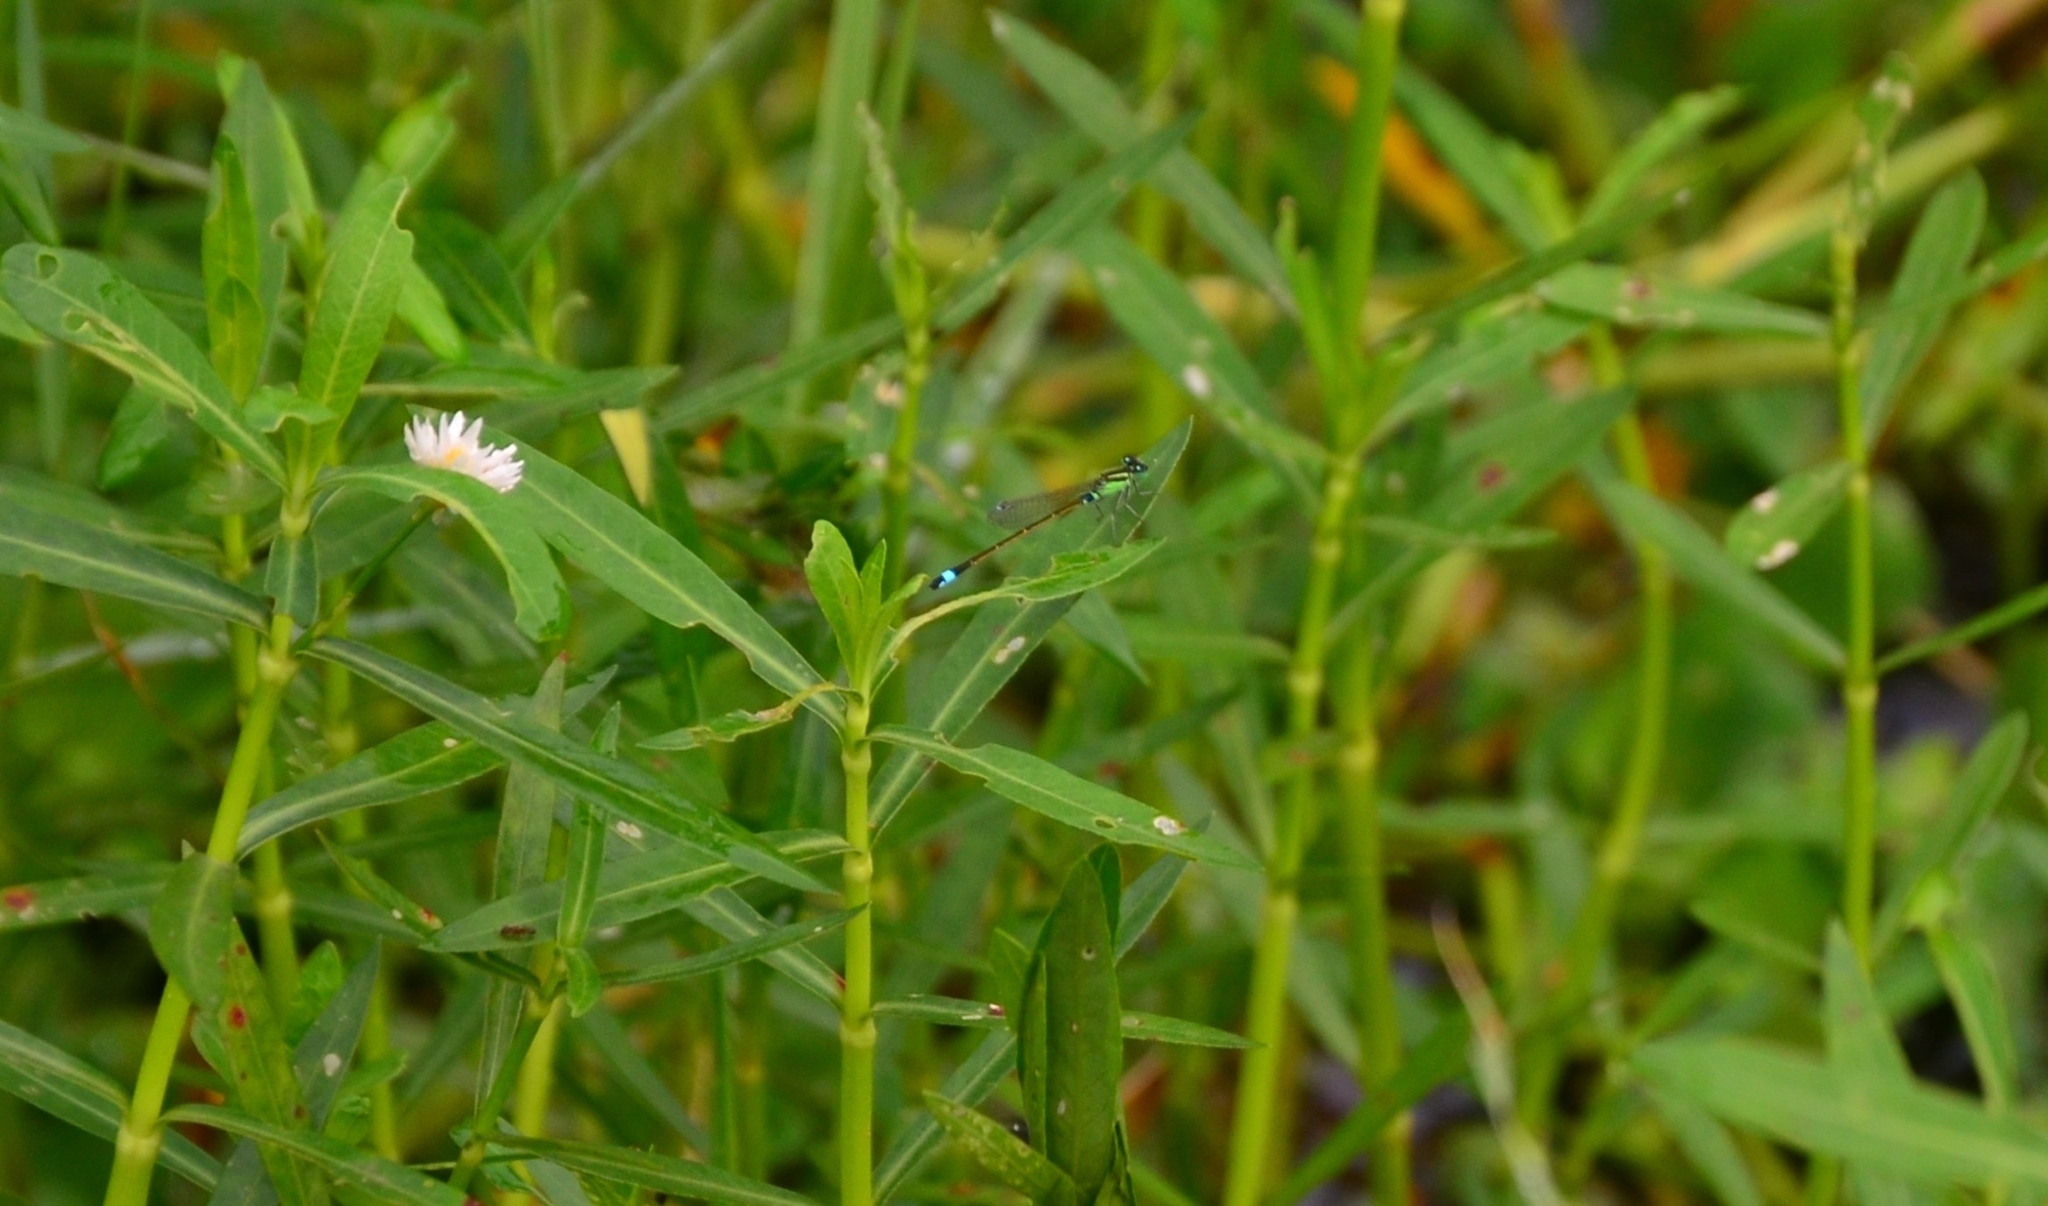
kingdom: Animalia
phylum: Arthropoda
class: Insecta
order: Odonata
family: Coenagrionidae
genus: Ischnura
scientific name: Ischnura senegalensis
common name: Tropical bluetail
